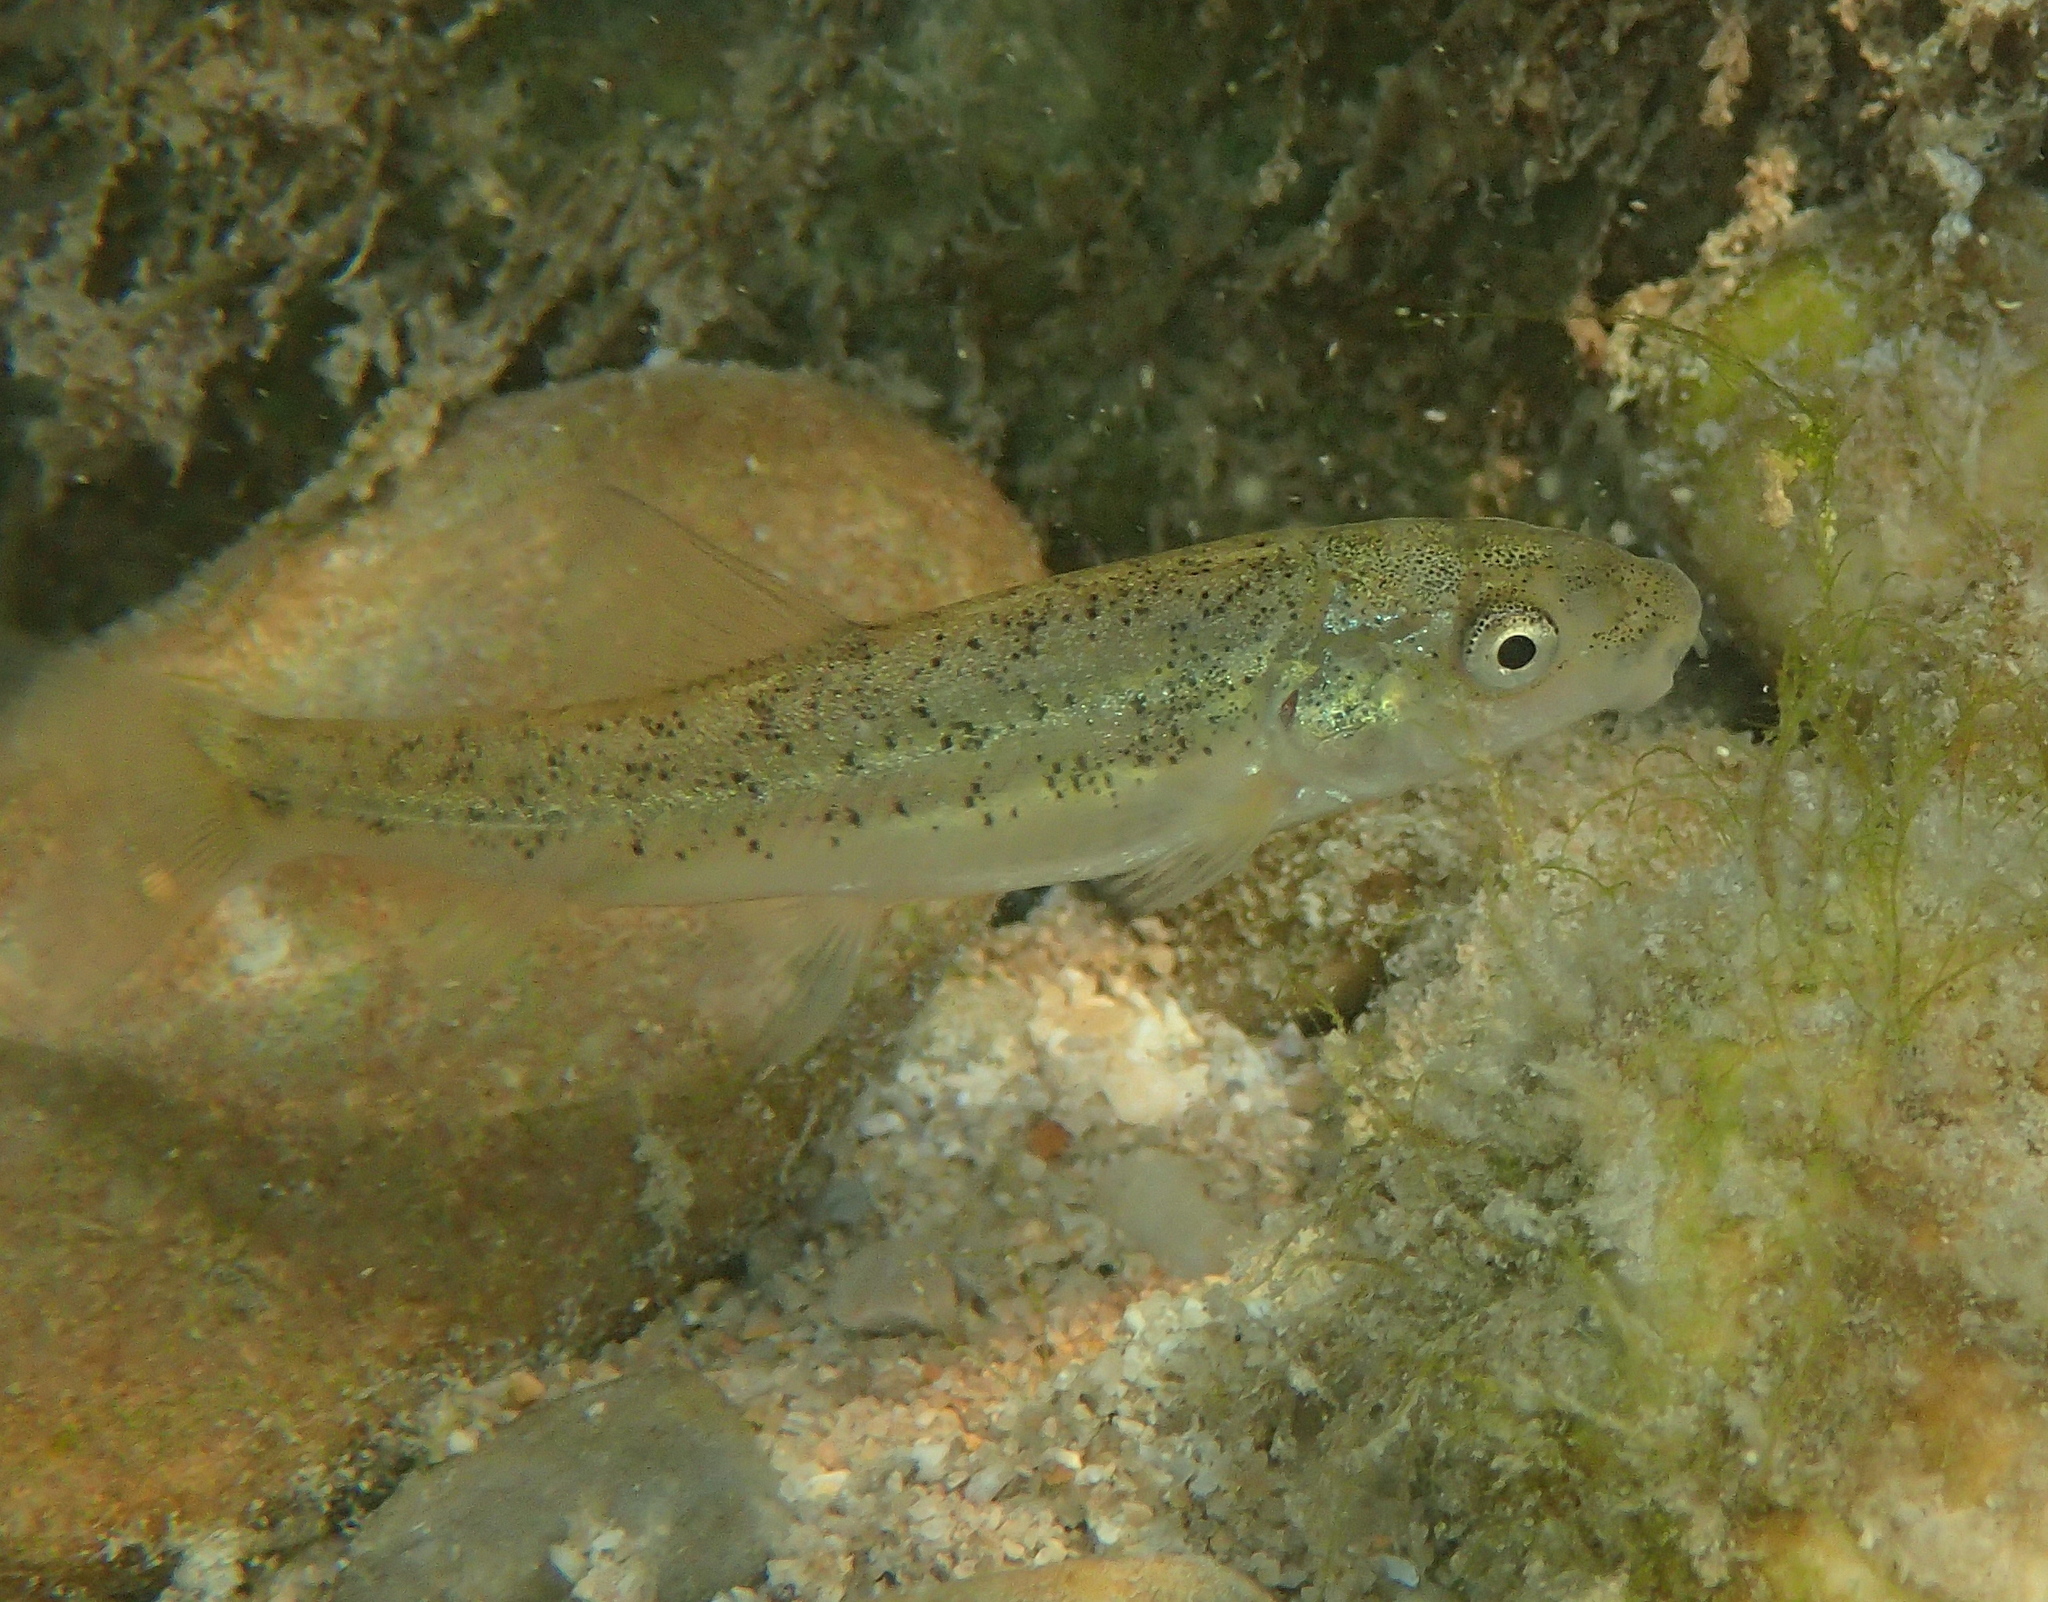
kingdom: Animalia
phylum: Chordata
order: Cypriniformes
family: Cyprinidae
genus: Barbus
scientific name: Barbus barbus
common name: Barbel
